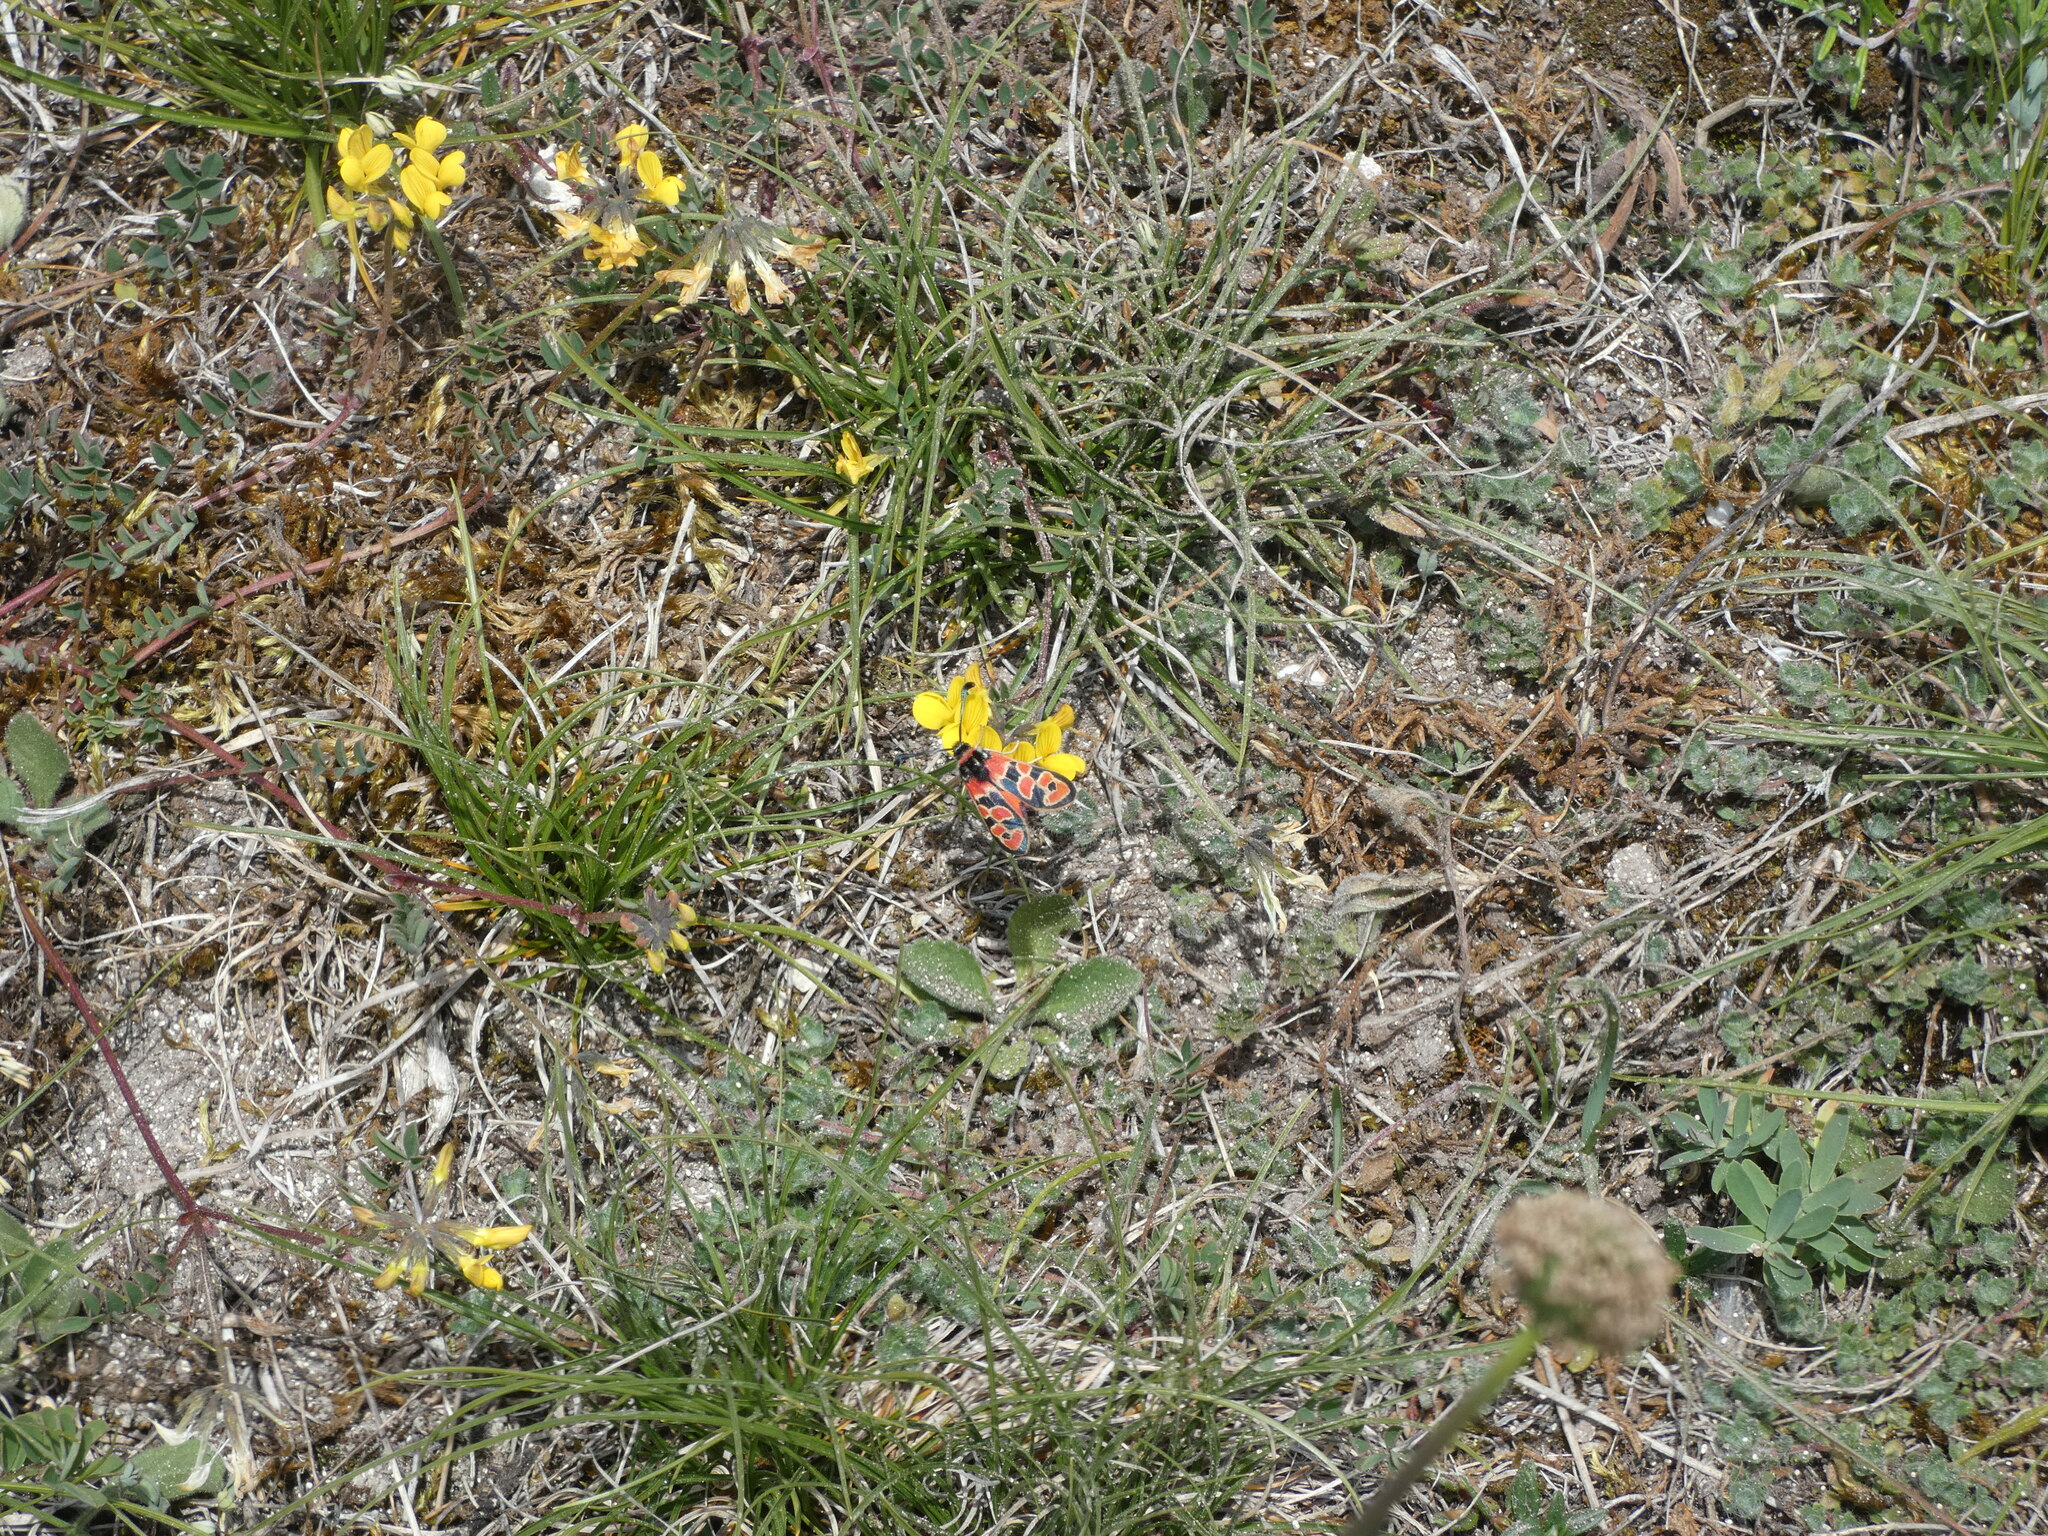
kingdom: Animalia
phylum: Arthropoda
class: Insecta
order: Lepidoptera
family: Zygaenidae
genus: Zygaena
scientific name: Zygaena fausta
